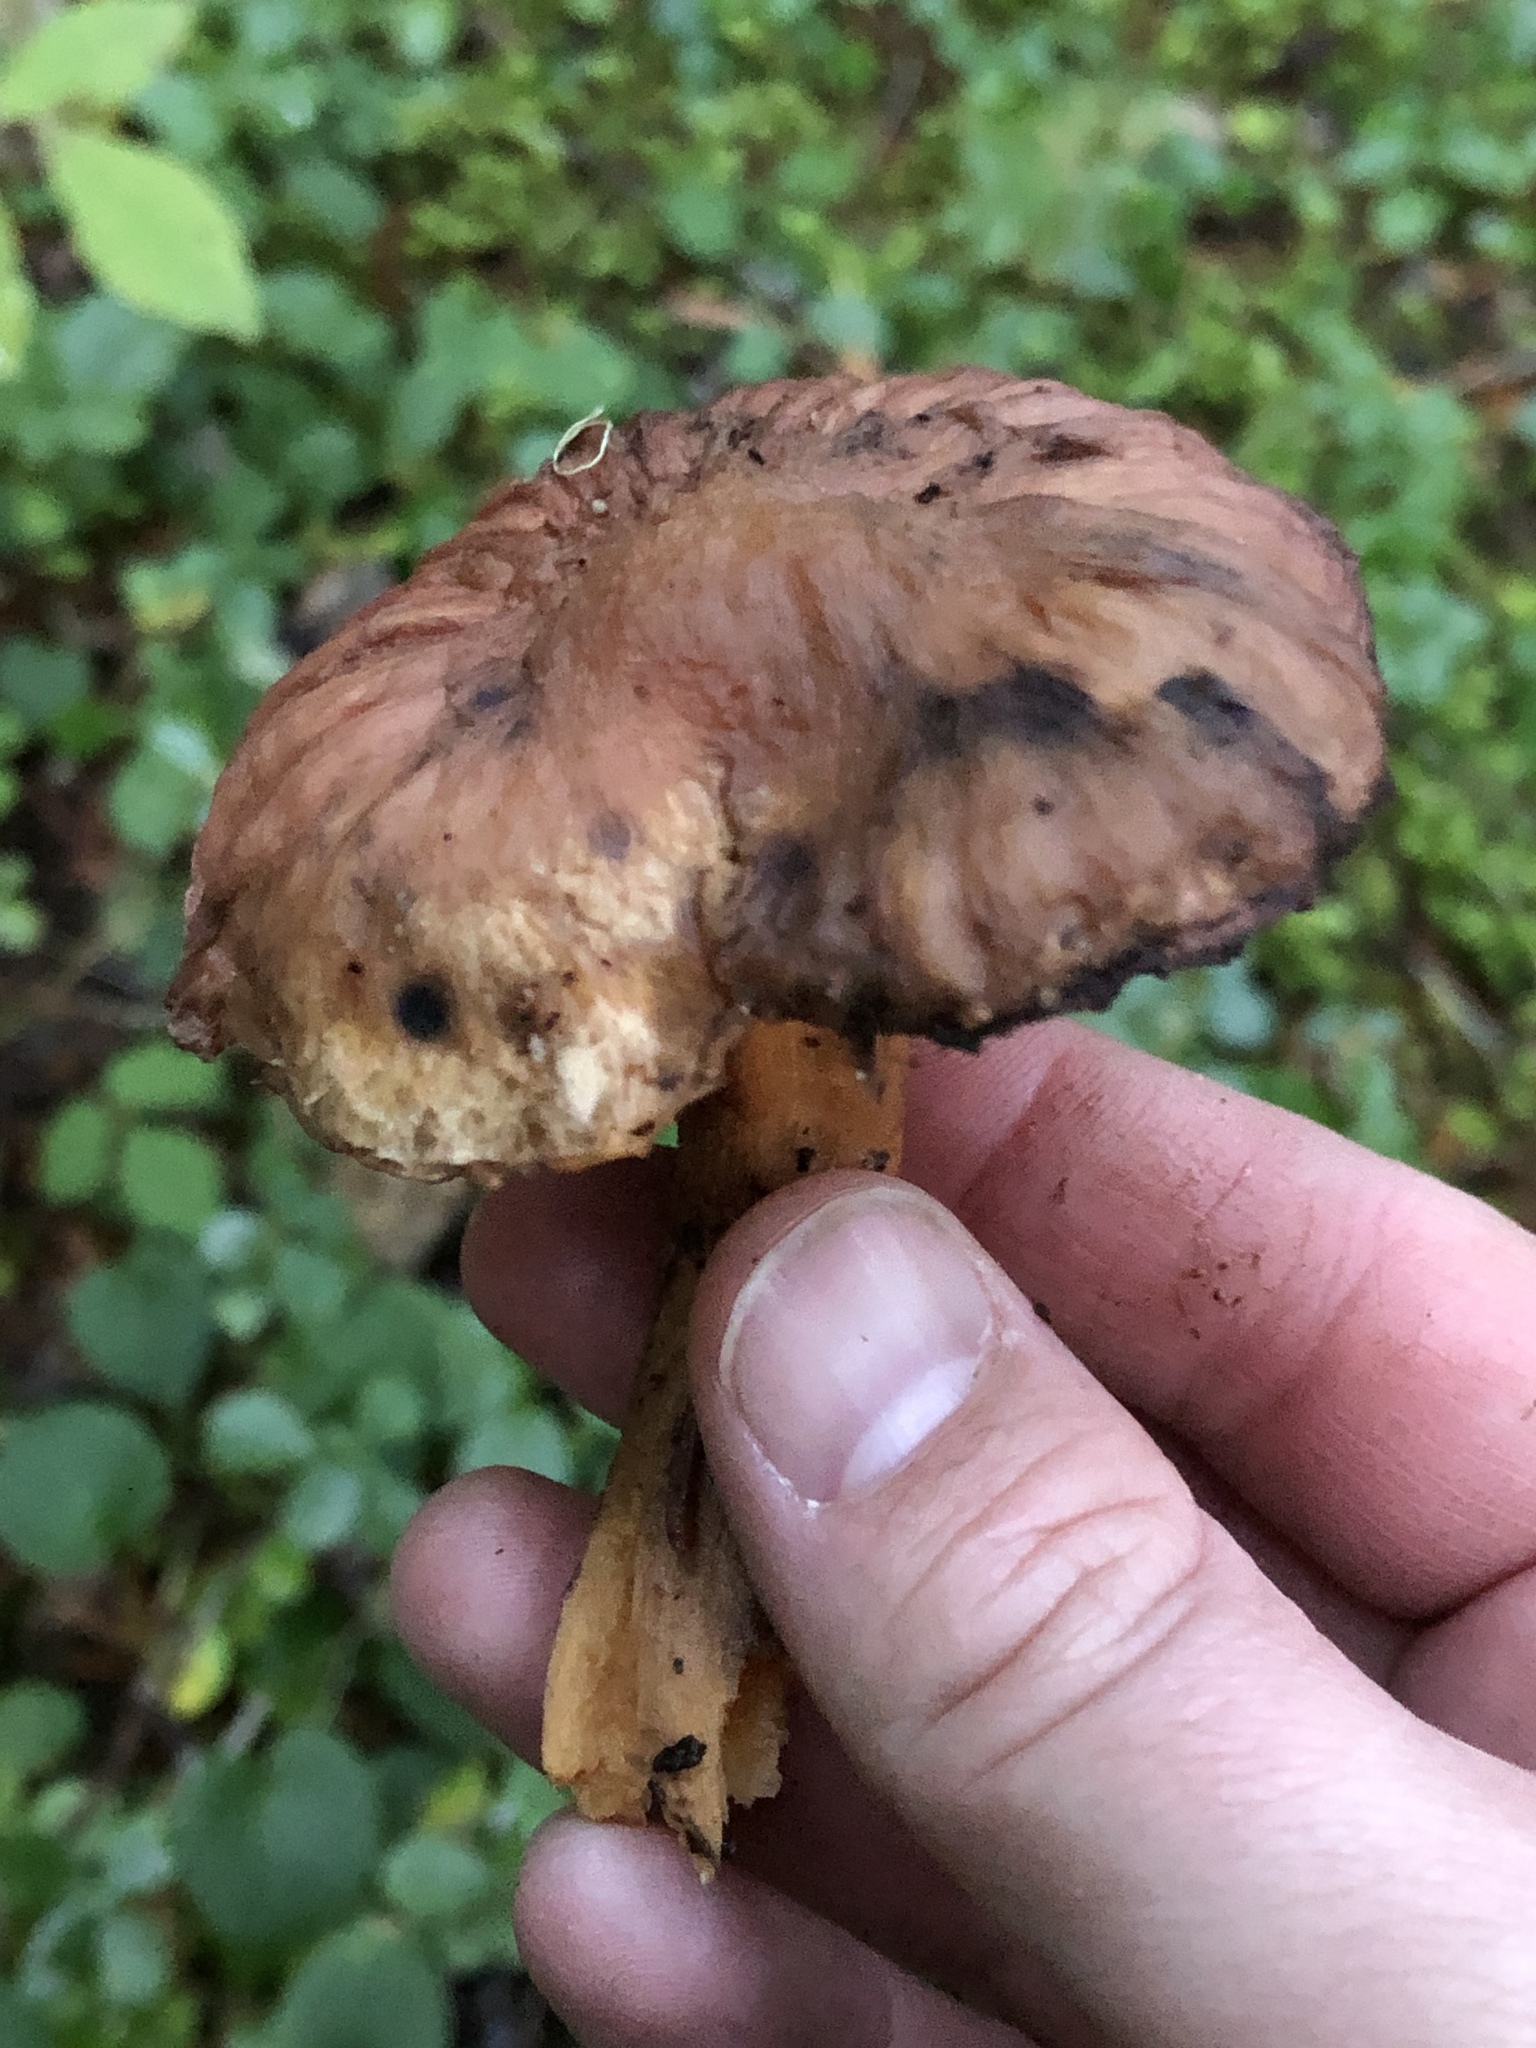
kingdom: Fungi
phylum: Basidiomycota
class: Agaricomycetes
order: Boletales
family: Gomphidiaceae
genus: Chroogomphus
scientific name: Chroogomphus vinicolor
